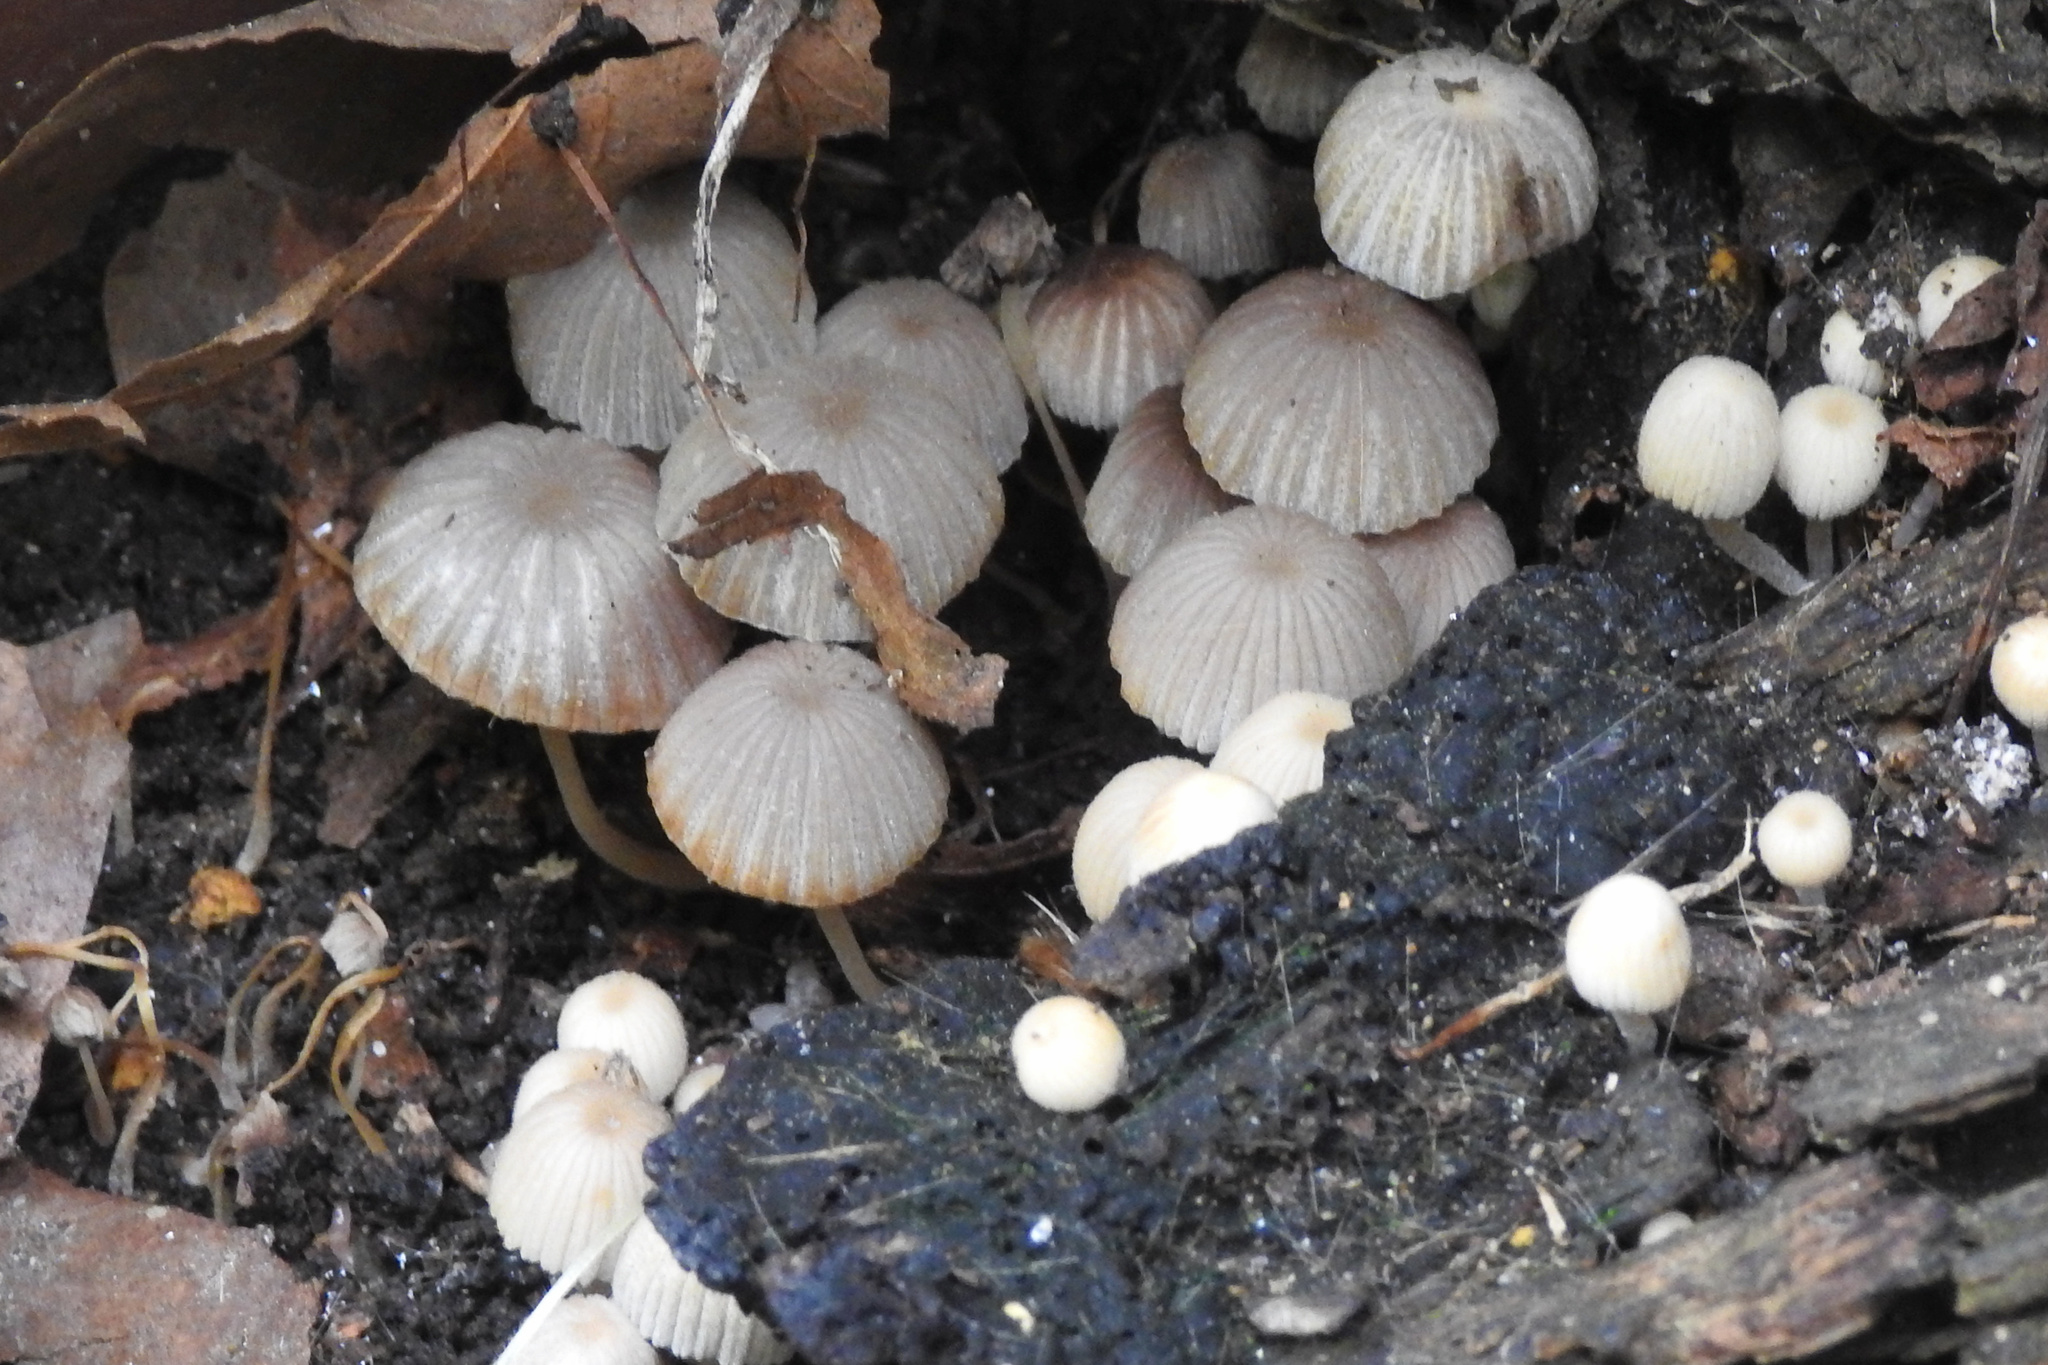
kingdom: Fungi
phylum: Basidiomycota
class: Agaricomycetes
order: Agaricales
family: Psathyrellaceae
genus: Coprinellus
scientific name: Coprinellus disseminatus
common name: Fairies' bonnets
